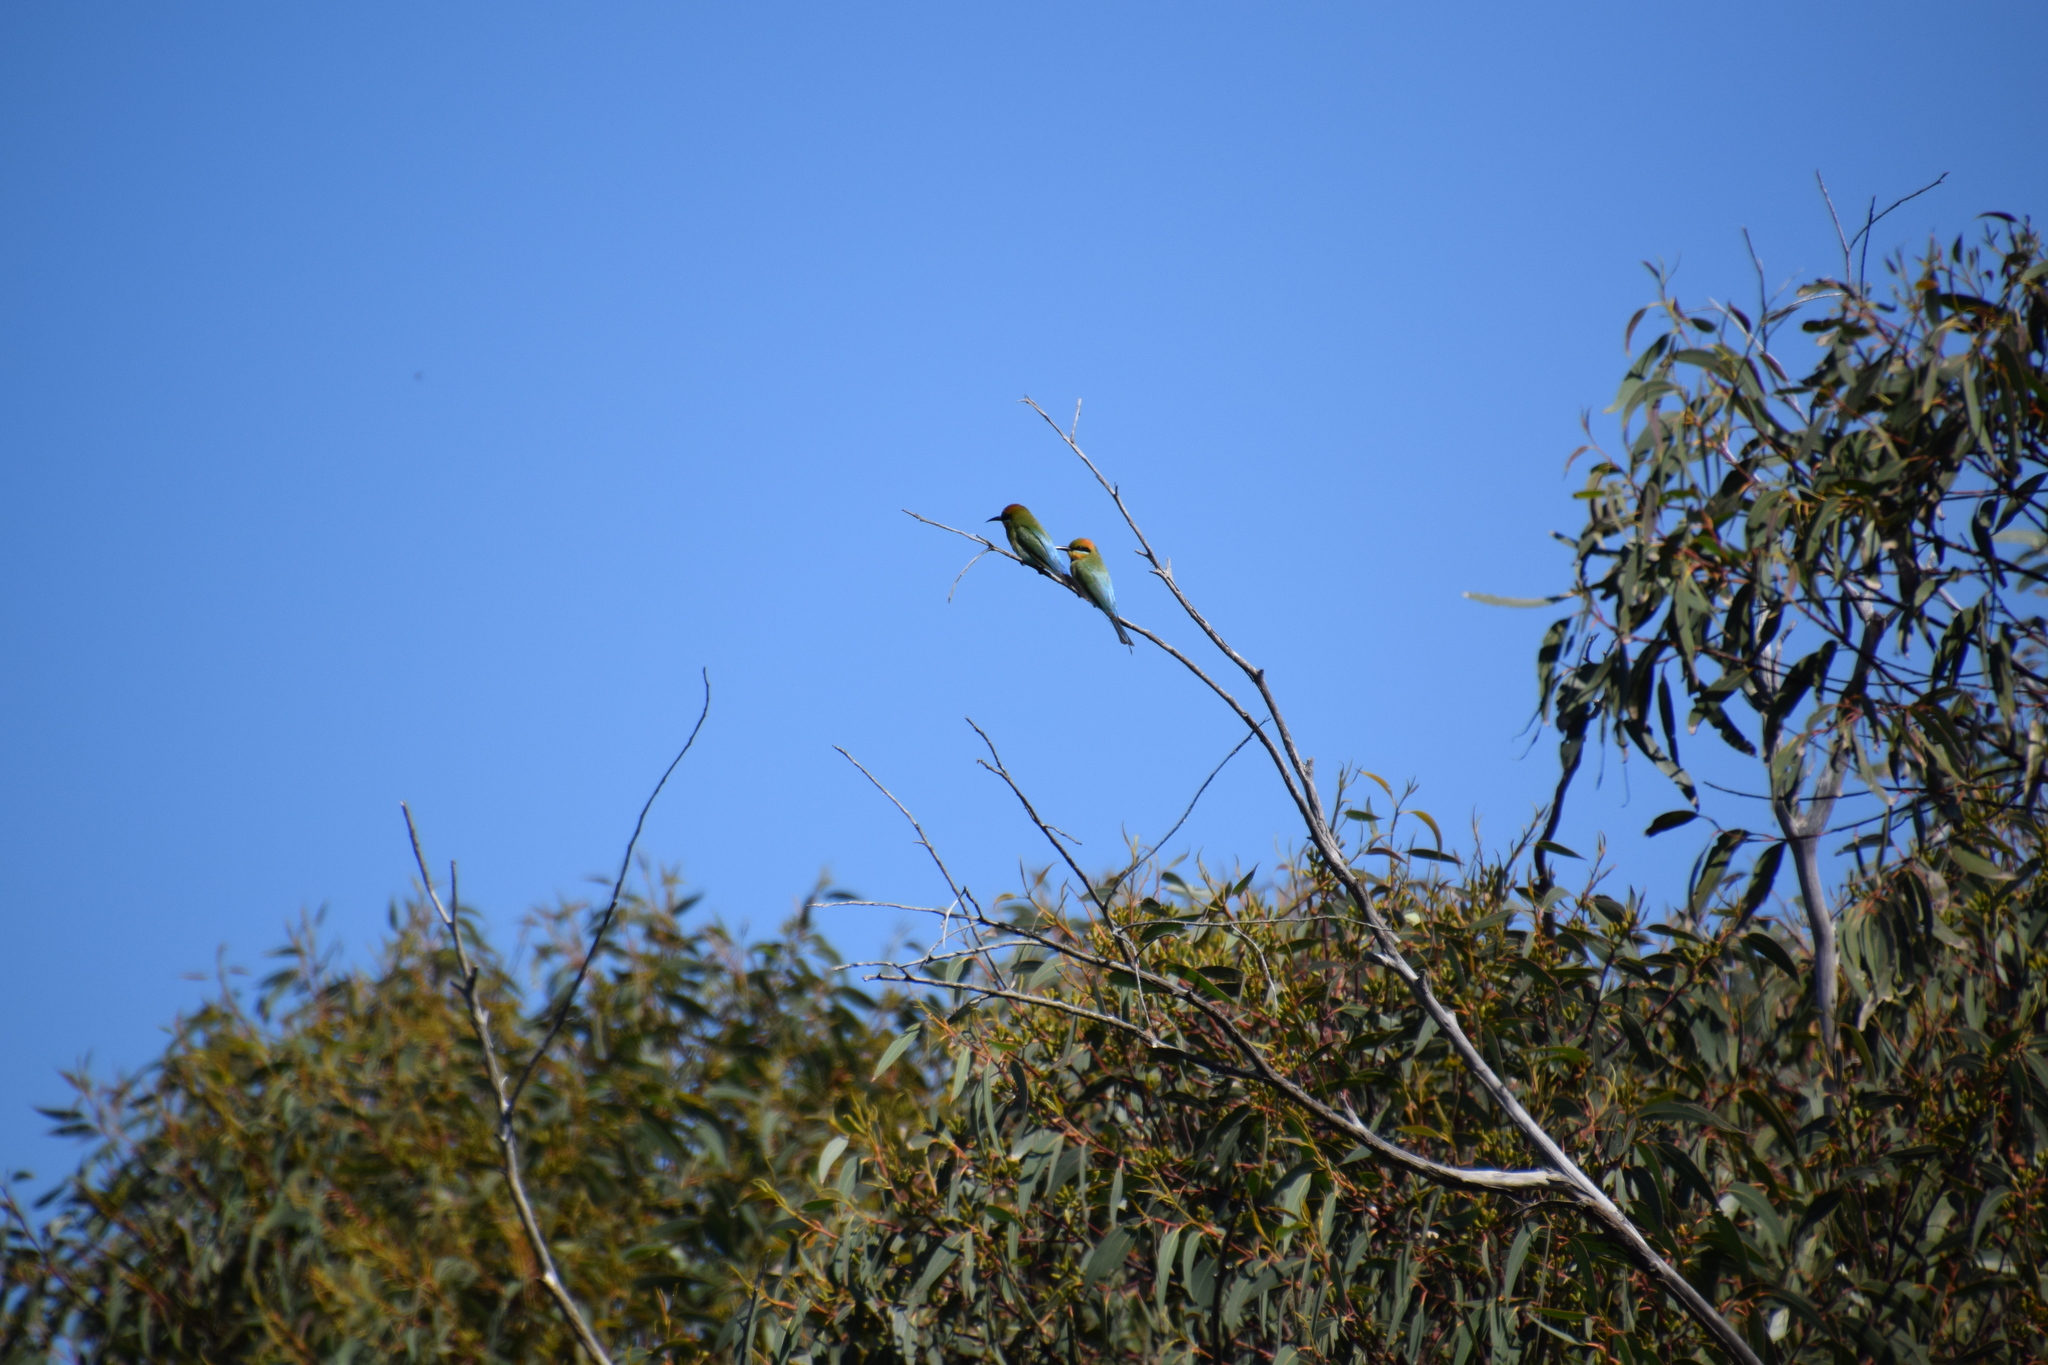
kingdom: Animalia
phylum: Chordata
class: Aves
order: Coraciiformes
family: Meropidae
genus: Merops
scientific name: Merops ornatus
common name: Rainbow bee-eater
